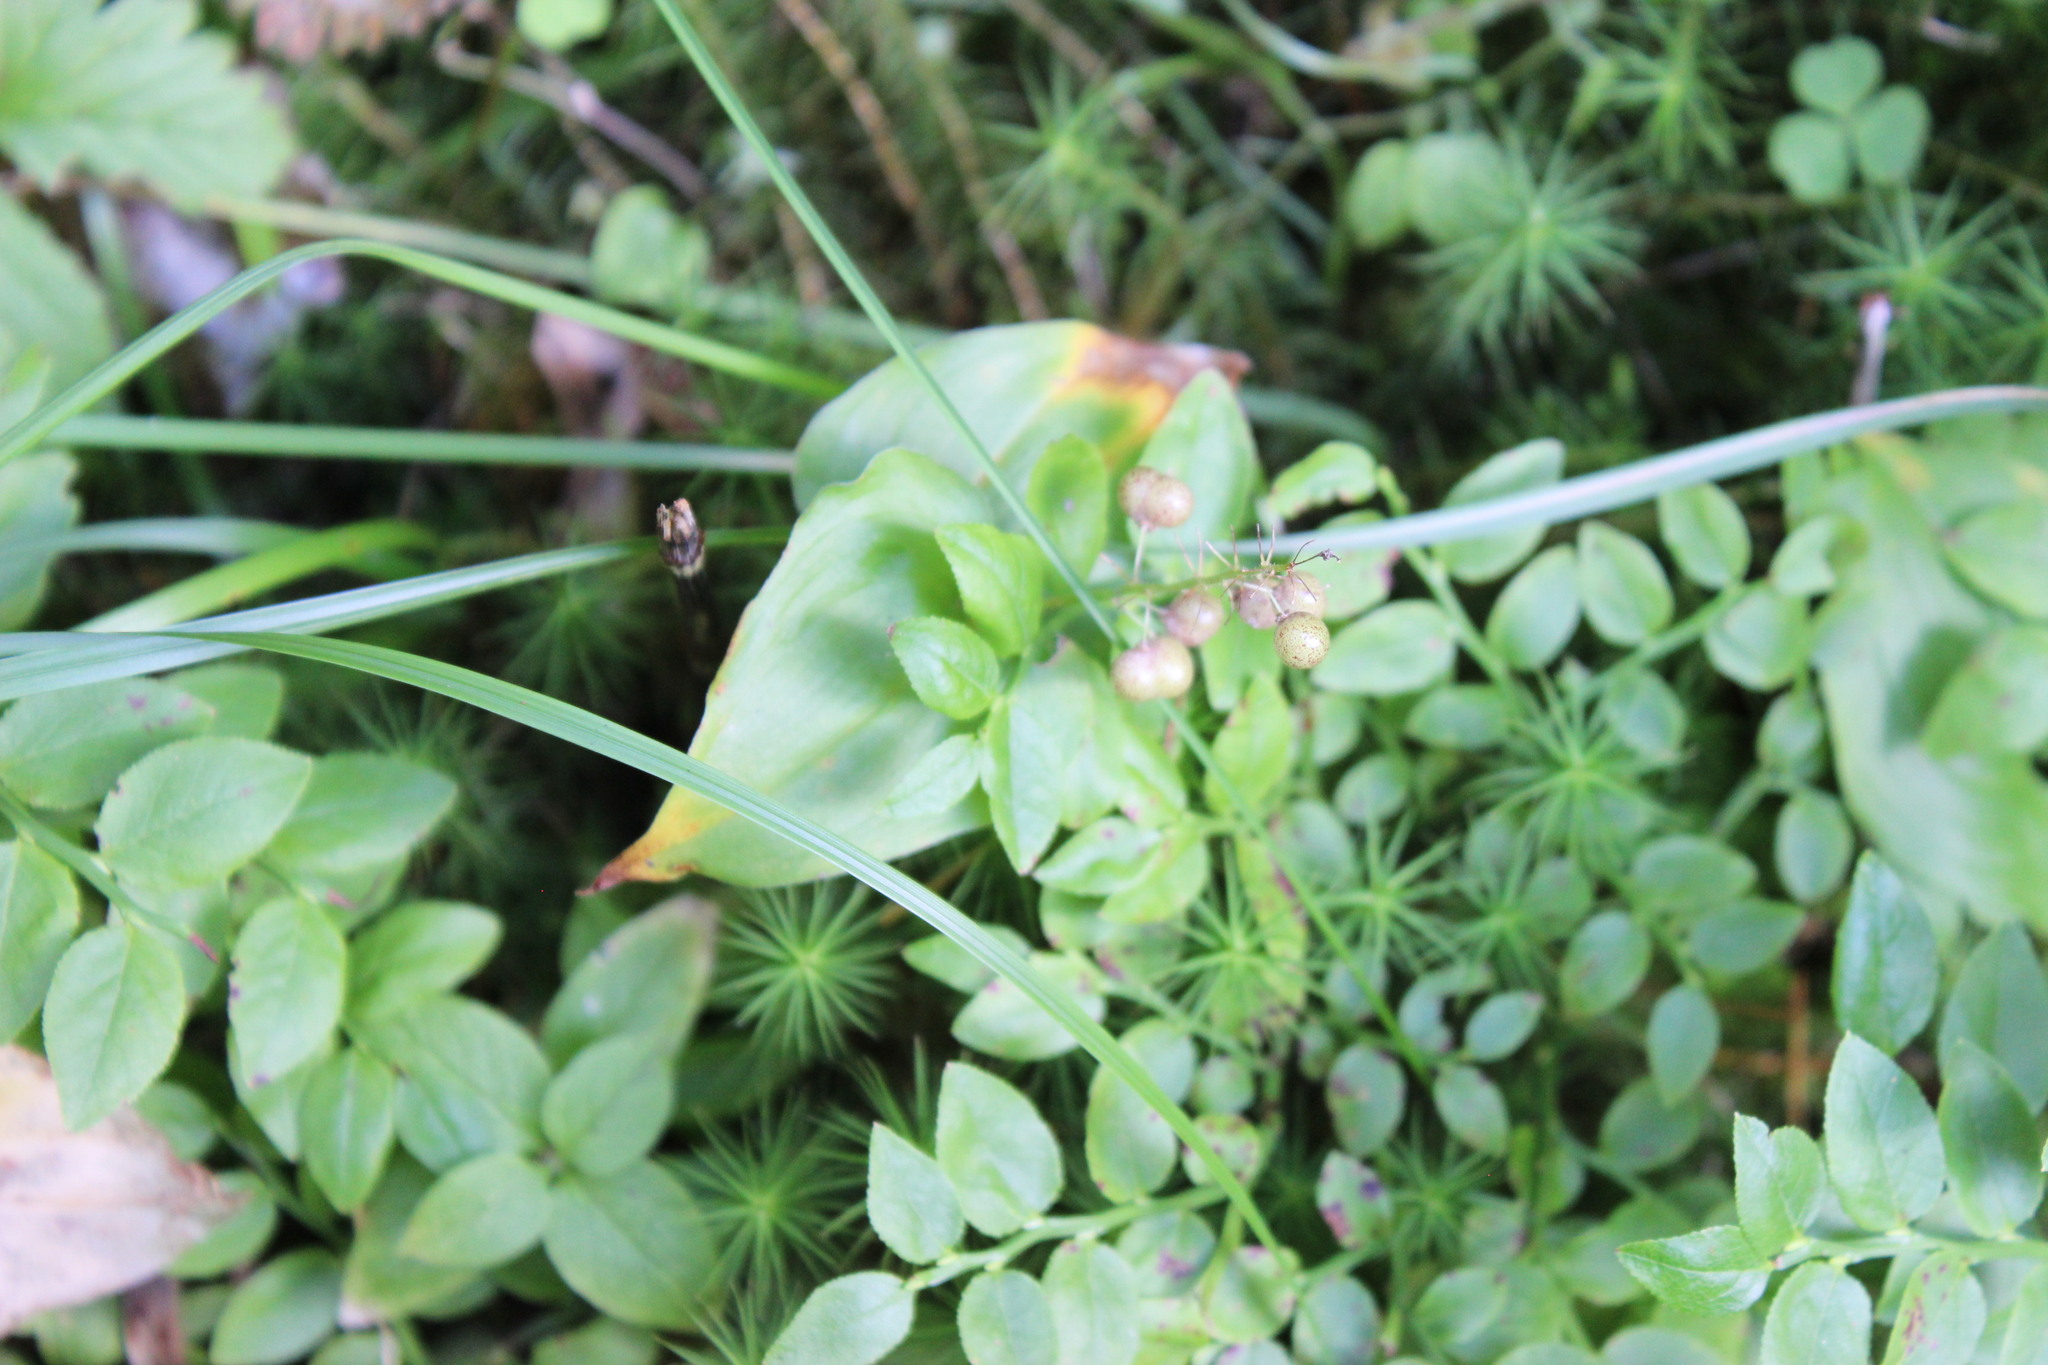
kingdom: Plantae
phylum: Tracheophyta
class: Liliopsida
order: Asparagales
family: Asparagaceae
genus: Maianthemum
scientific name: Maianthemum bifolium
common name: May lily
